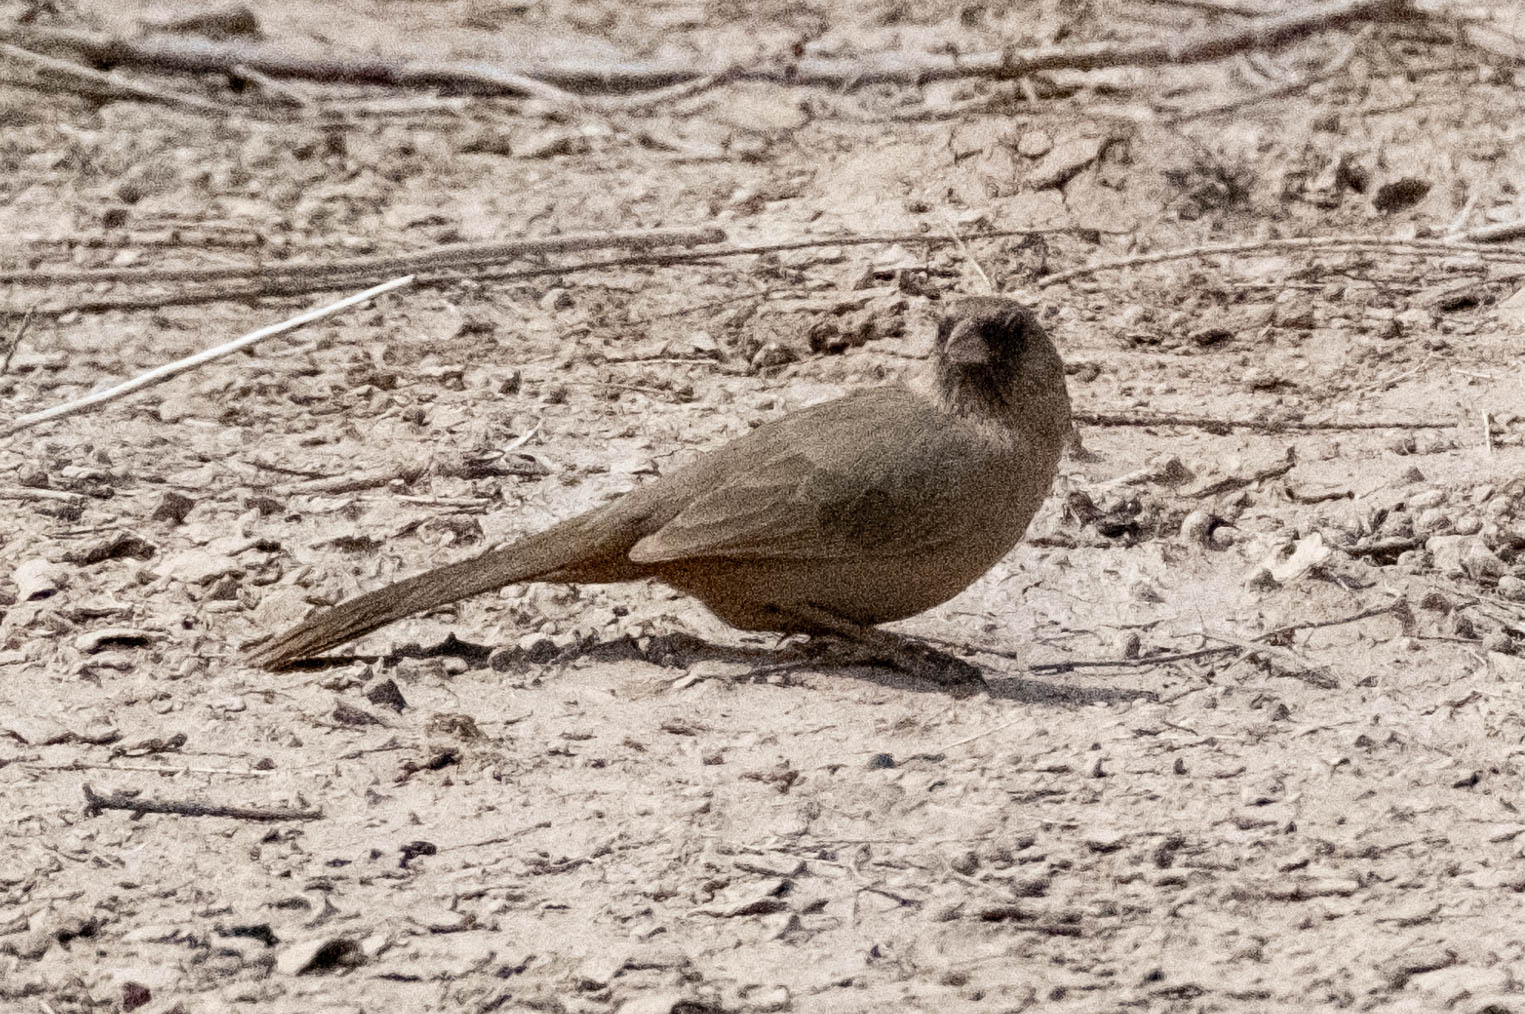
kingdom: Animalia
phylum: Chordata
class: Aves
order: Passeriformes
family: Passerellidae
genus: Melozone
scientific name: Melozone aberti
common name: Abert's towhee
